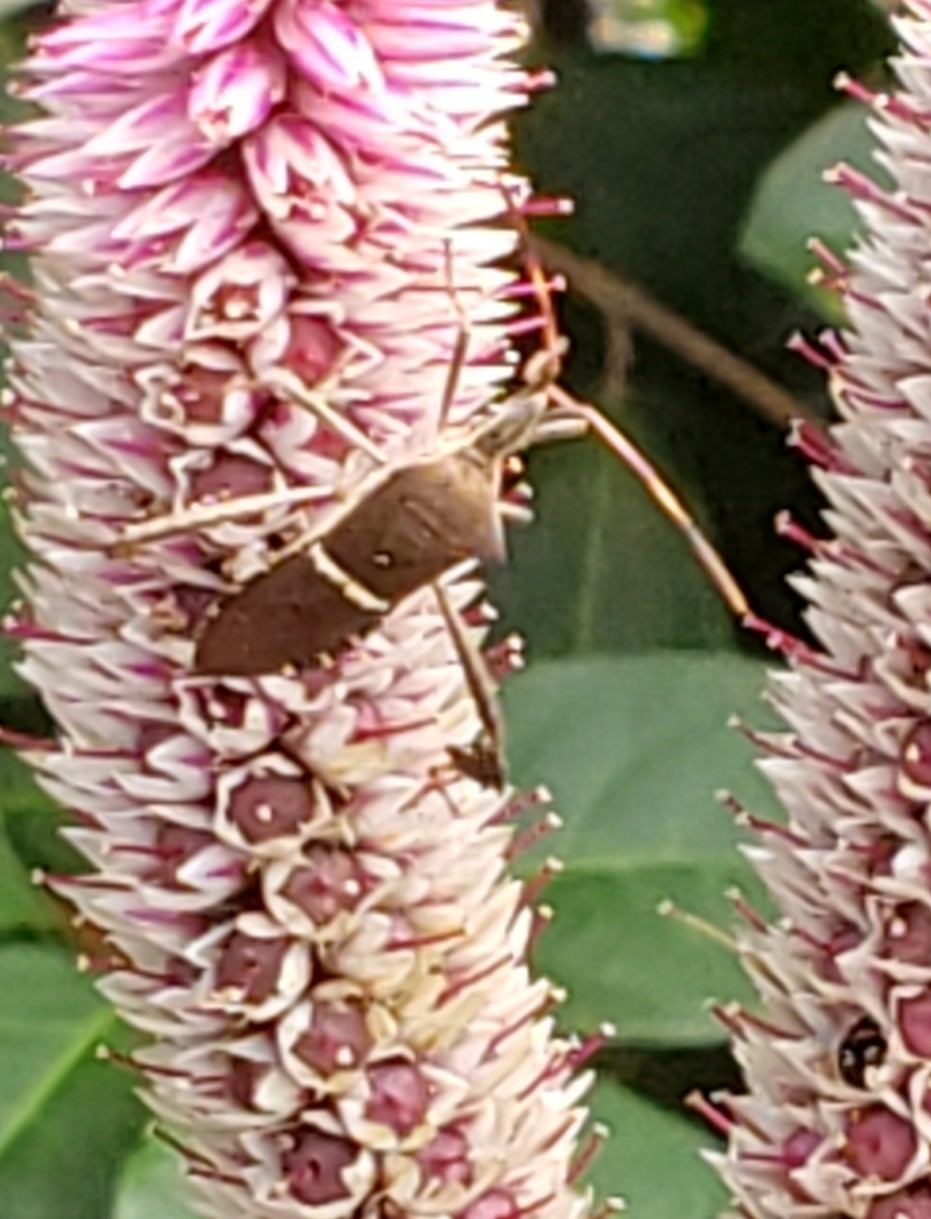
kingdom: Animalia
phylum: Arthropoda
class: Insecta
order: Hemiptera
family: Coreidae
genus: Leptoglossus
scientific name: Leptoglossus phyllopus
